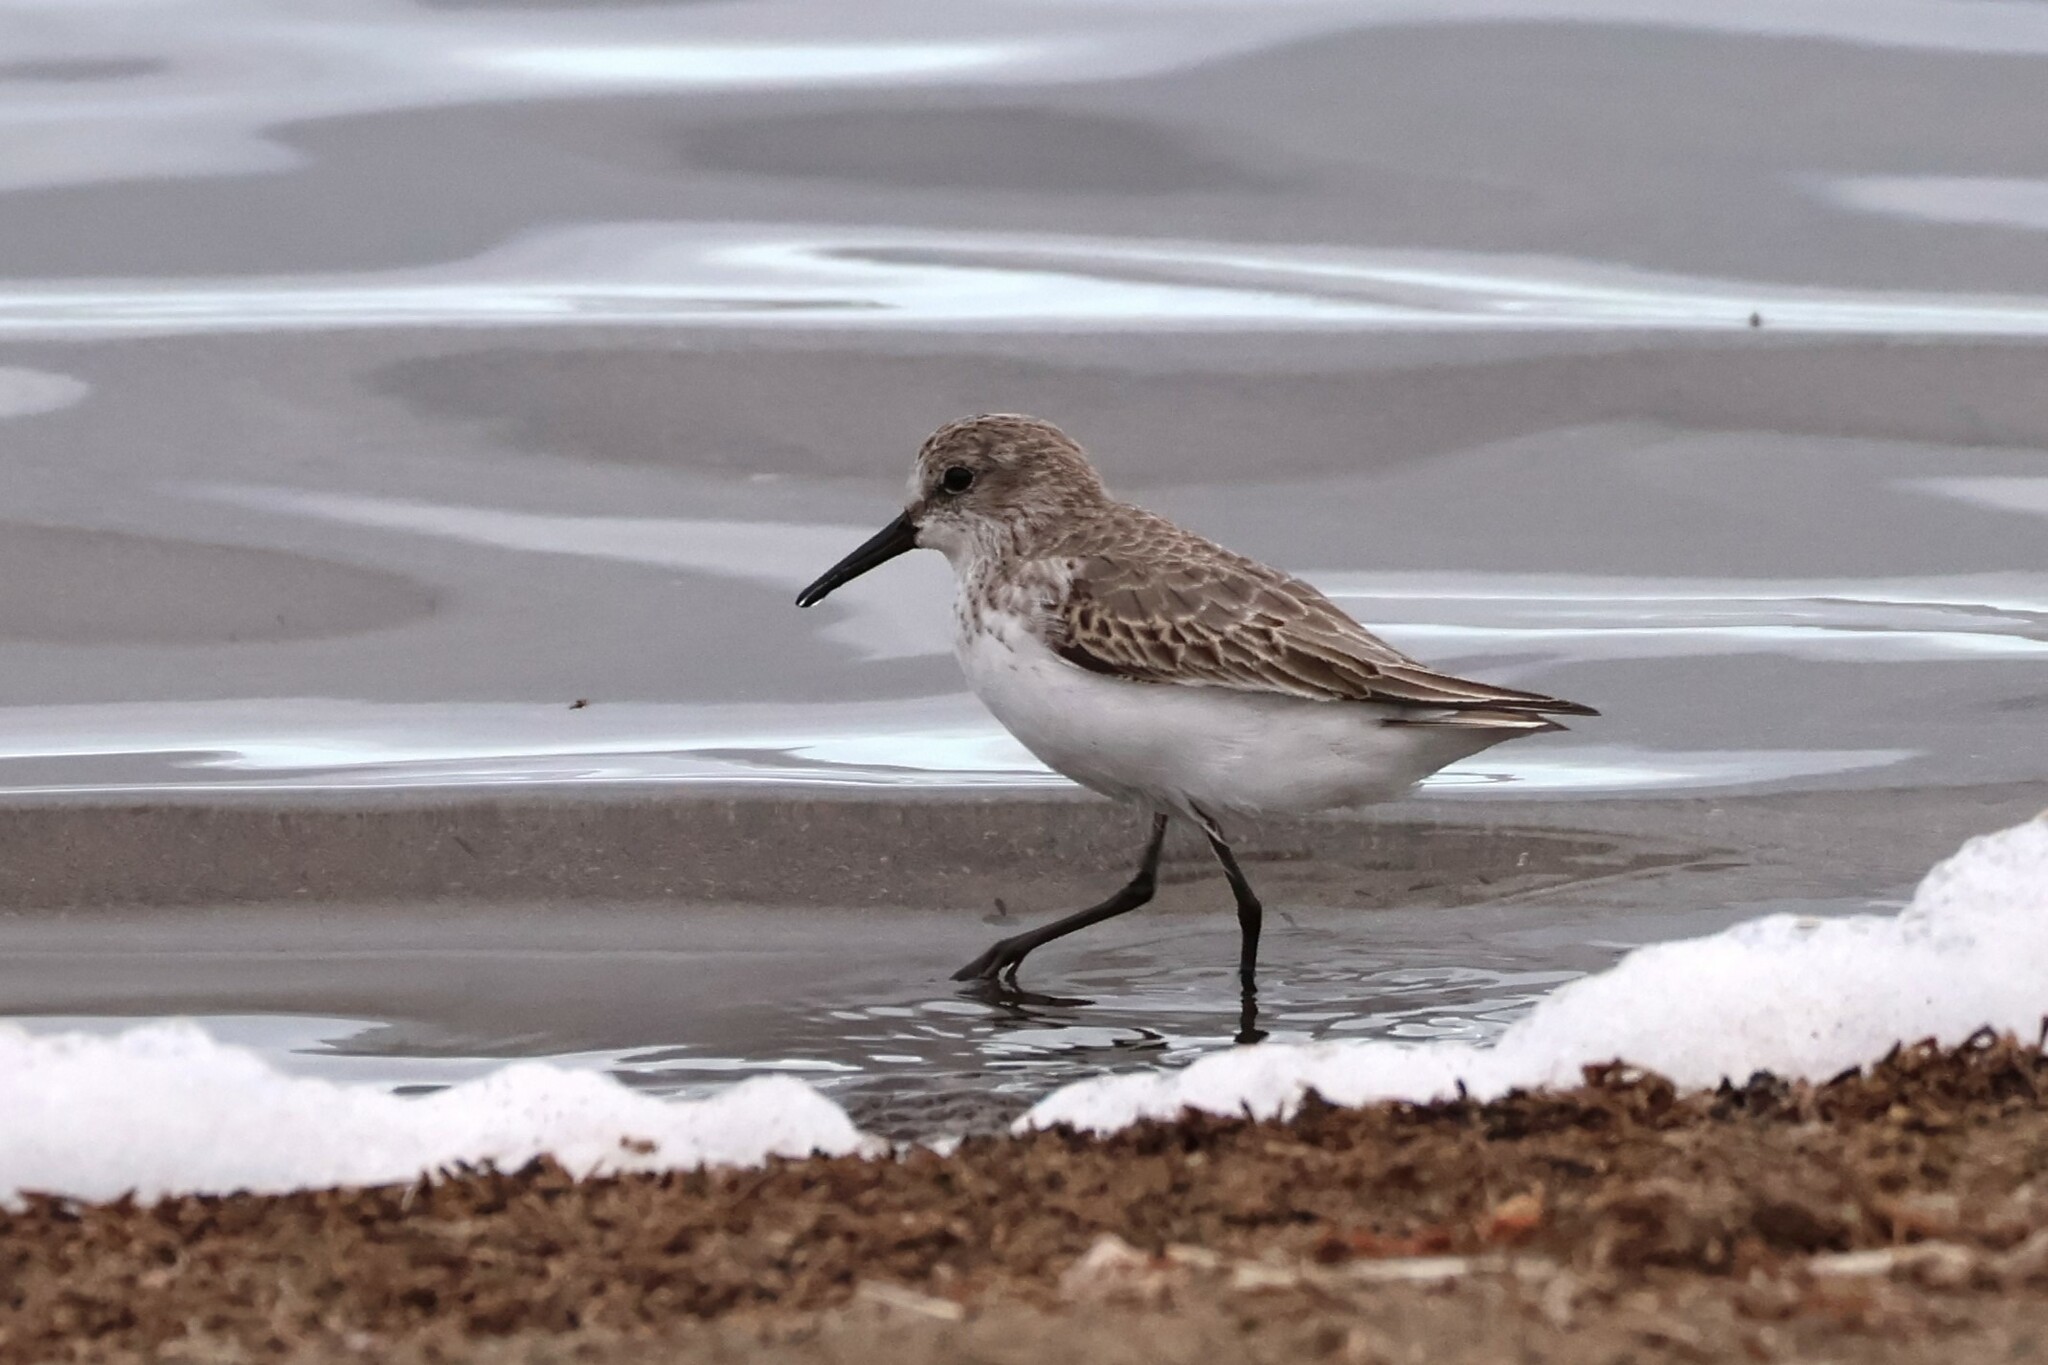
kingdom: Animalia
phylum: Chordata
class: Aves
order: Charadriiformes
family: Scolopacidae
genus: Calidris
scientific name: Calidris mauri
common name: Western sandpiper
